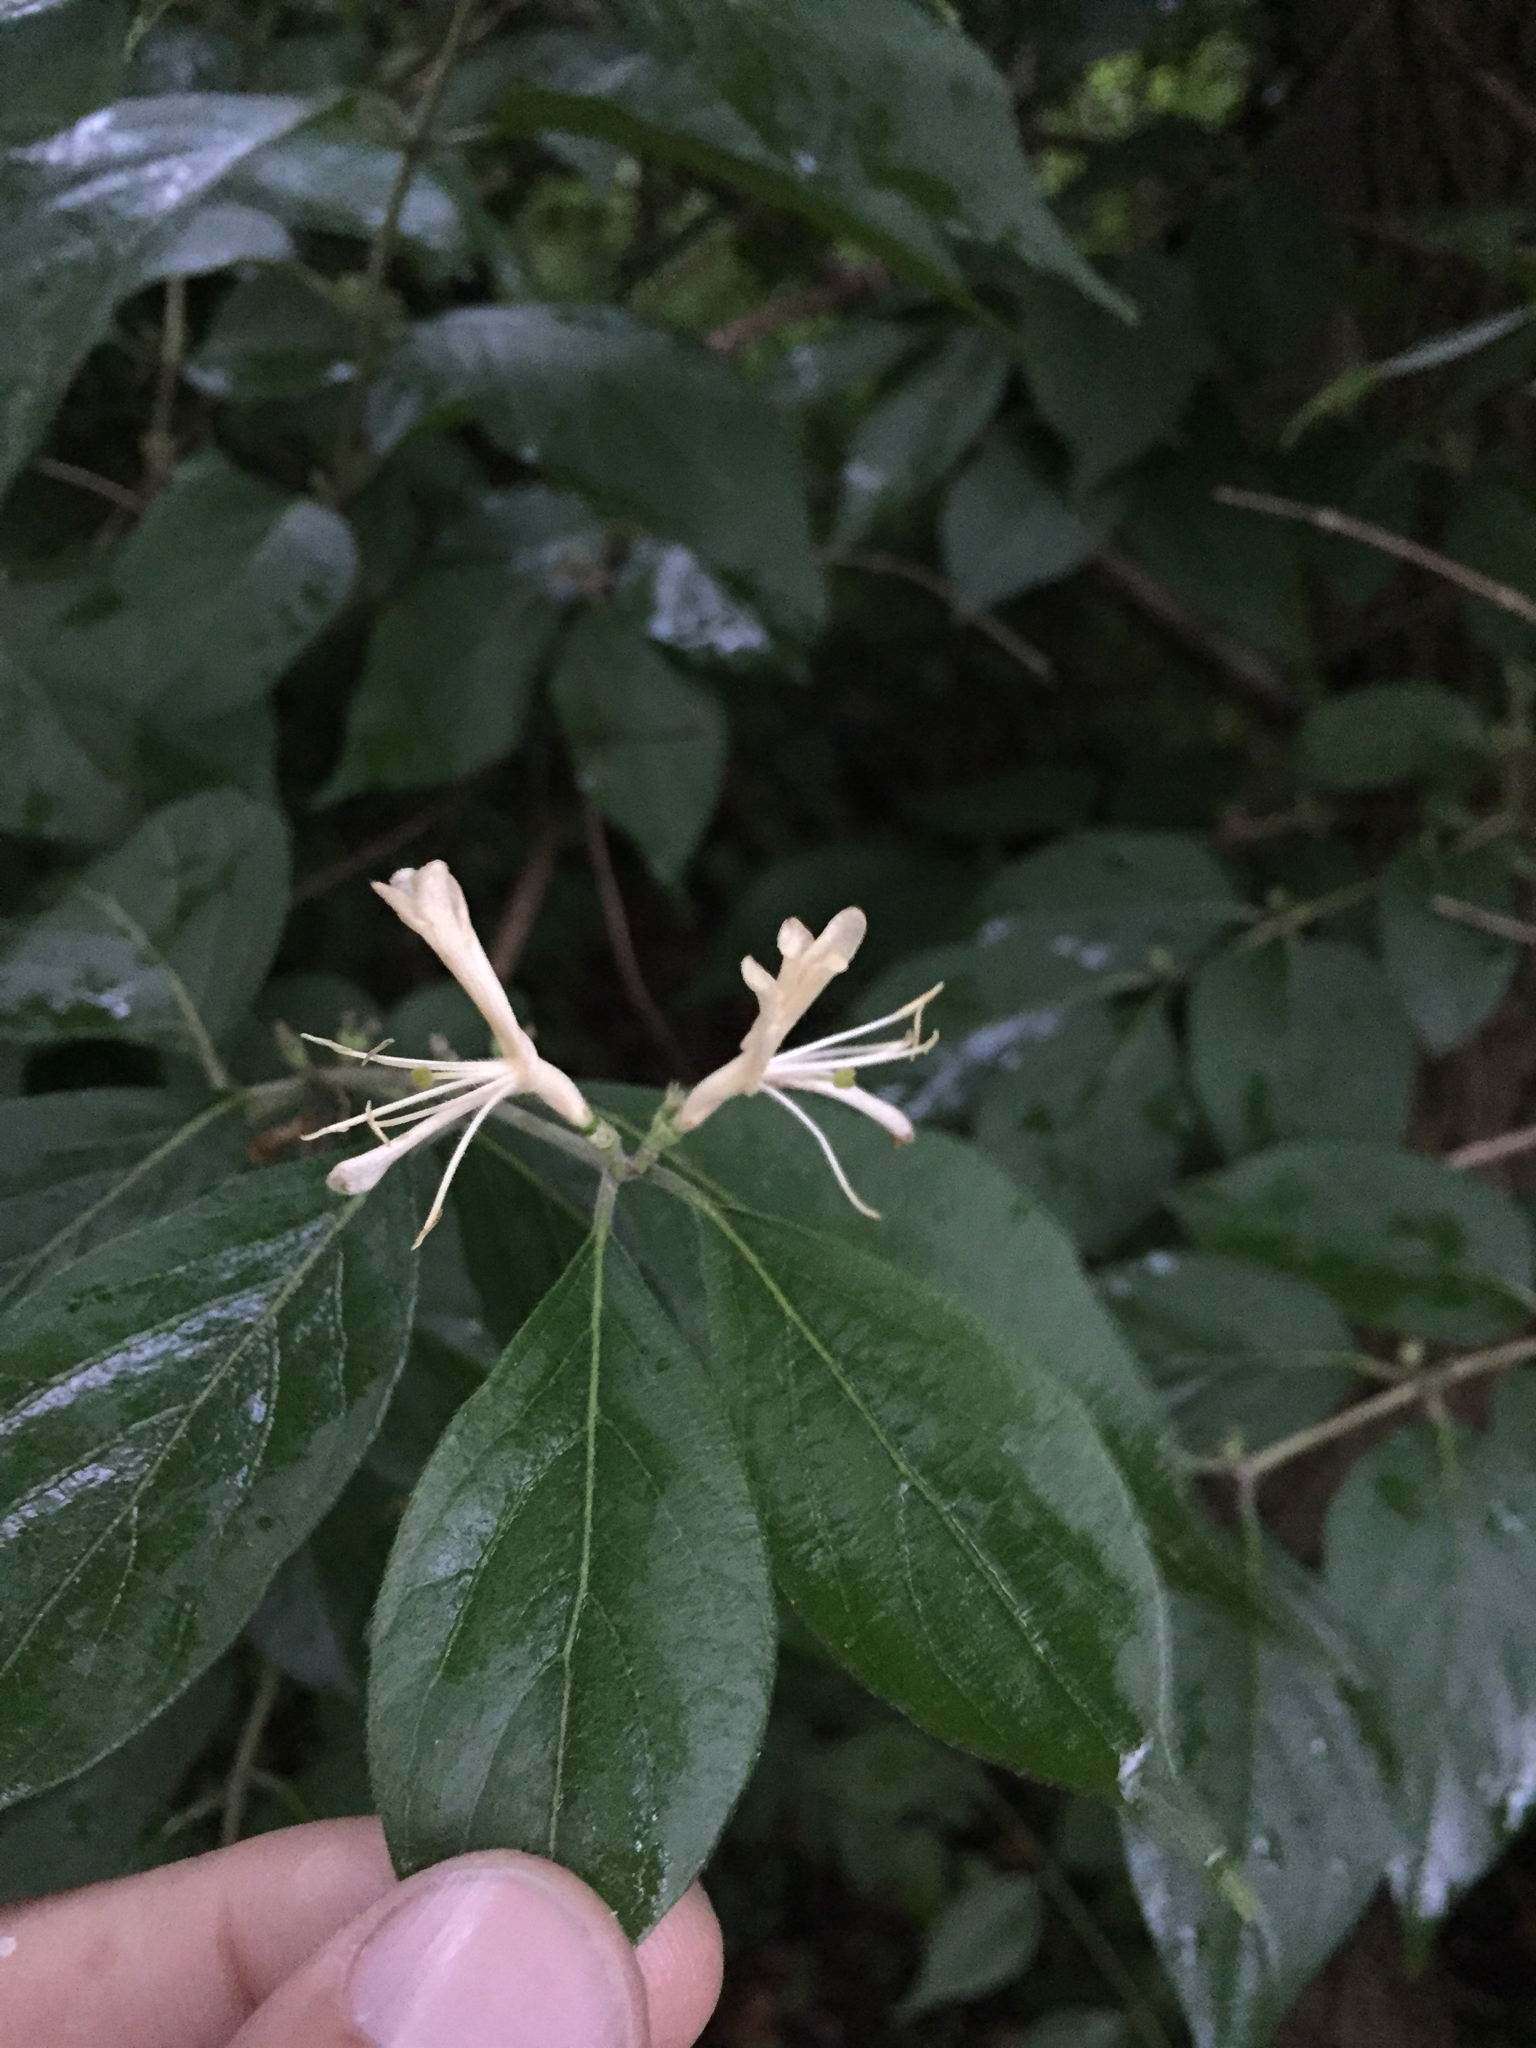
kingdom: Plantae
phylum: Tracheophyta
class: Magnoliopsida
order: Dipsacales
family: Caprifoliaceae
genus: Lonicera
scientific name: Lonicera maackii
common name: Amur honeysuckle
